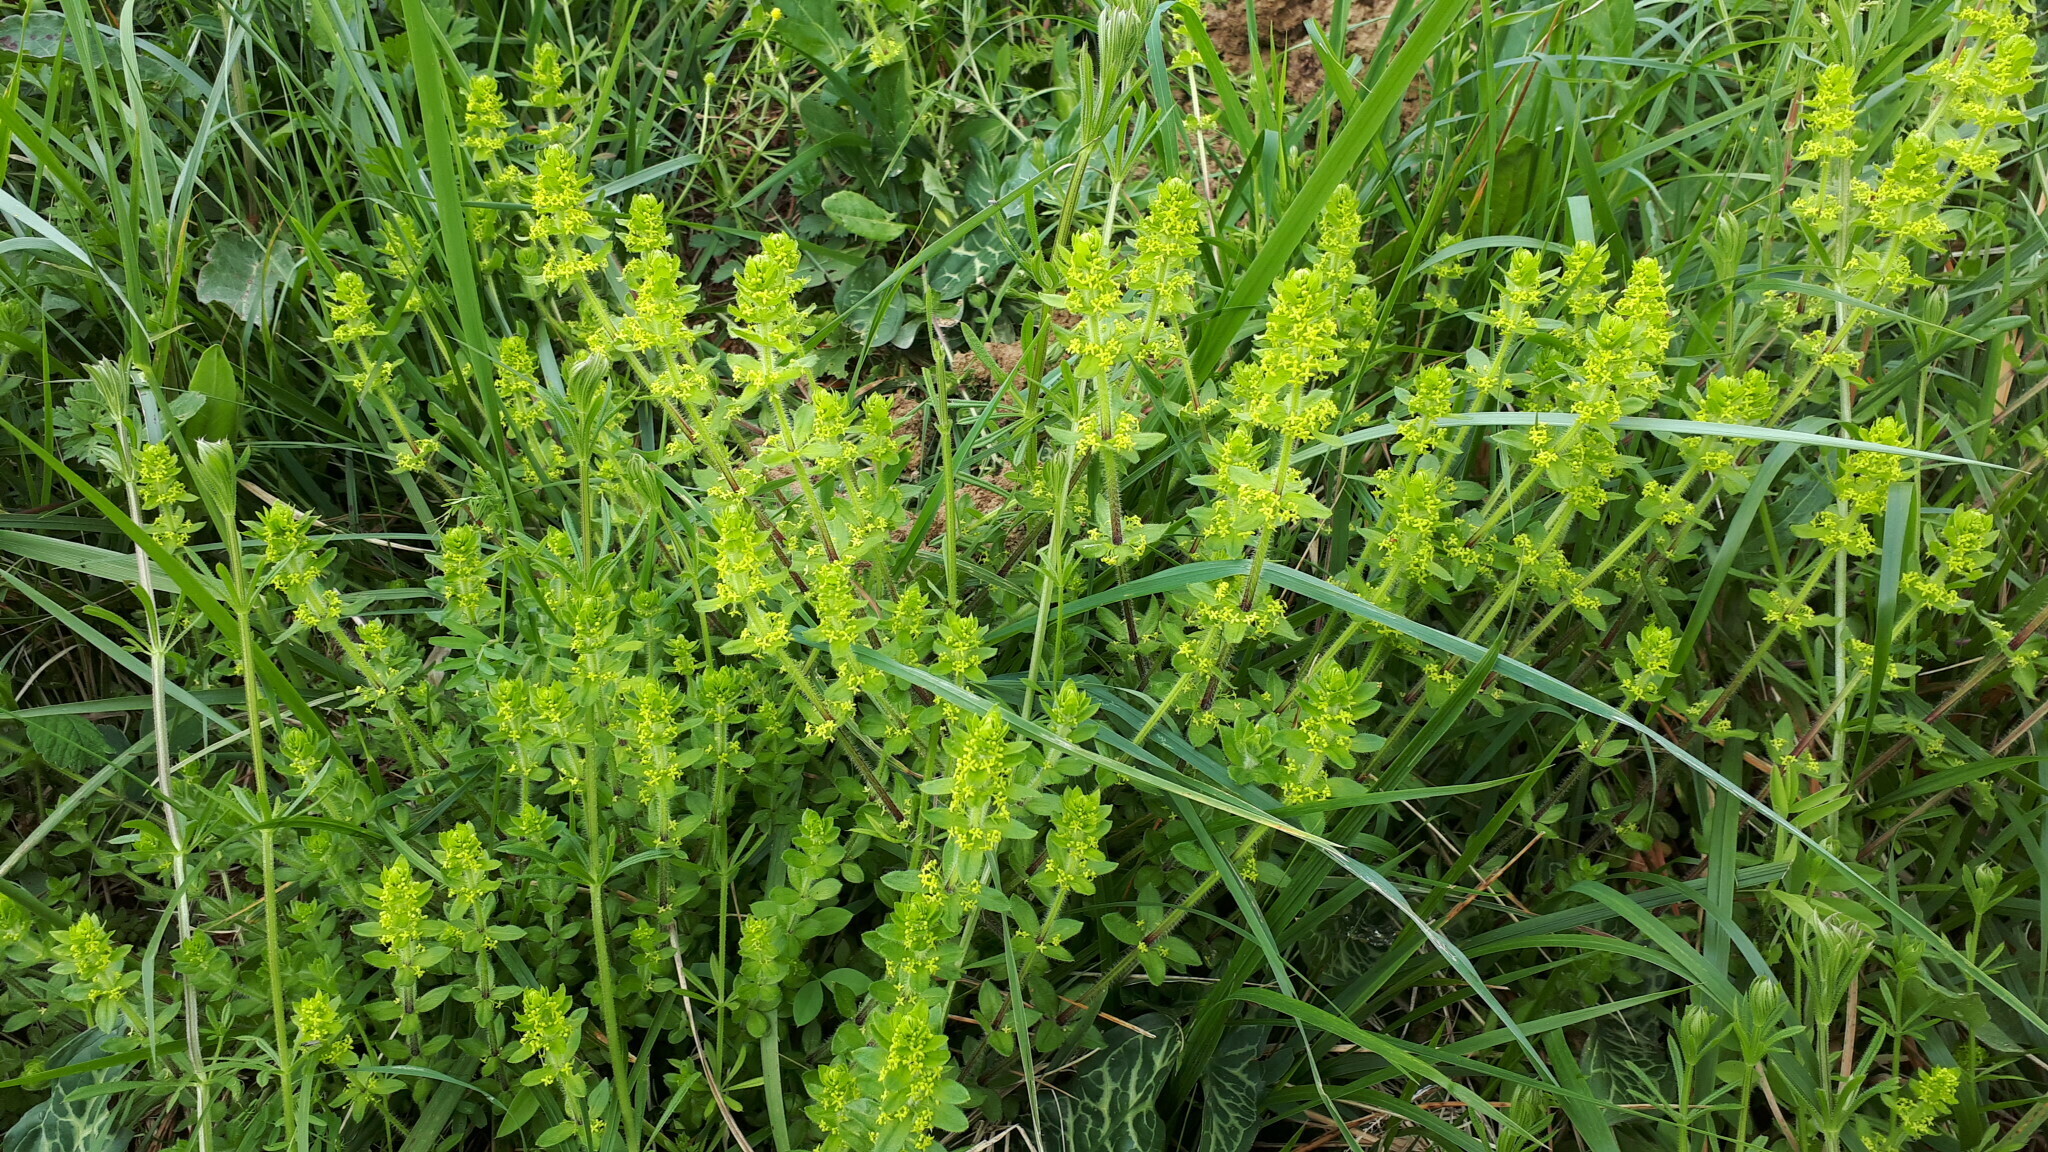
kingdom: Plantae
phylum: Tracheophyta
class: Magnoliopsida
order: Gentianales
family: Rubiaceae
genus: Cruciata
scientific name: Cruciata laevipes
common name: Crosswort
